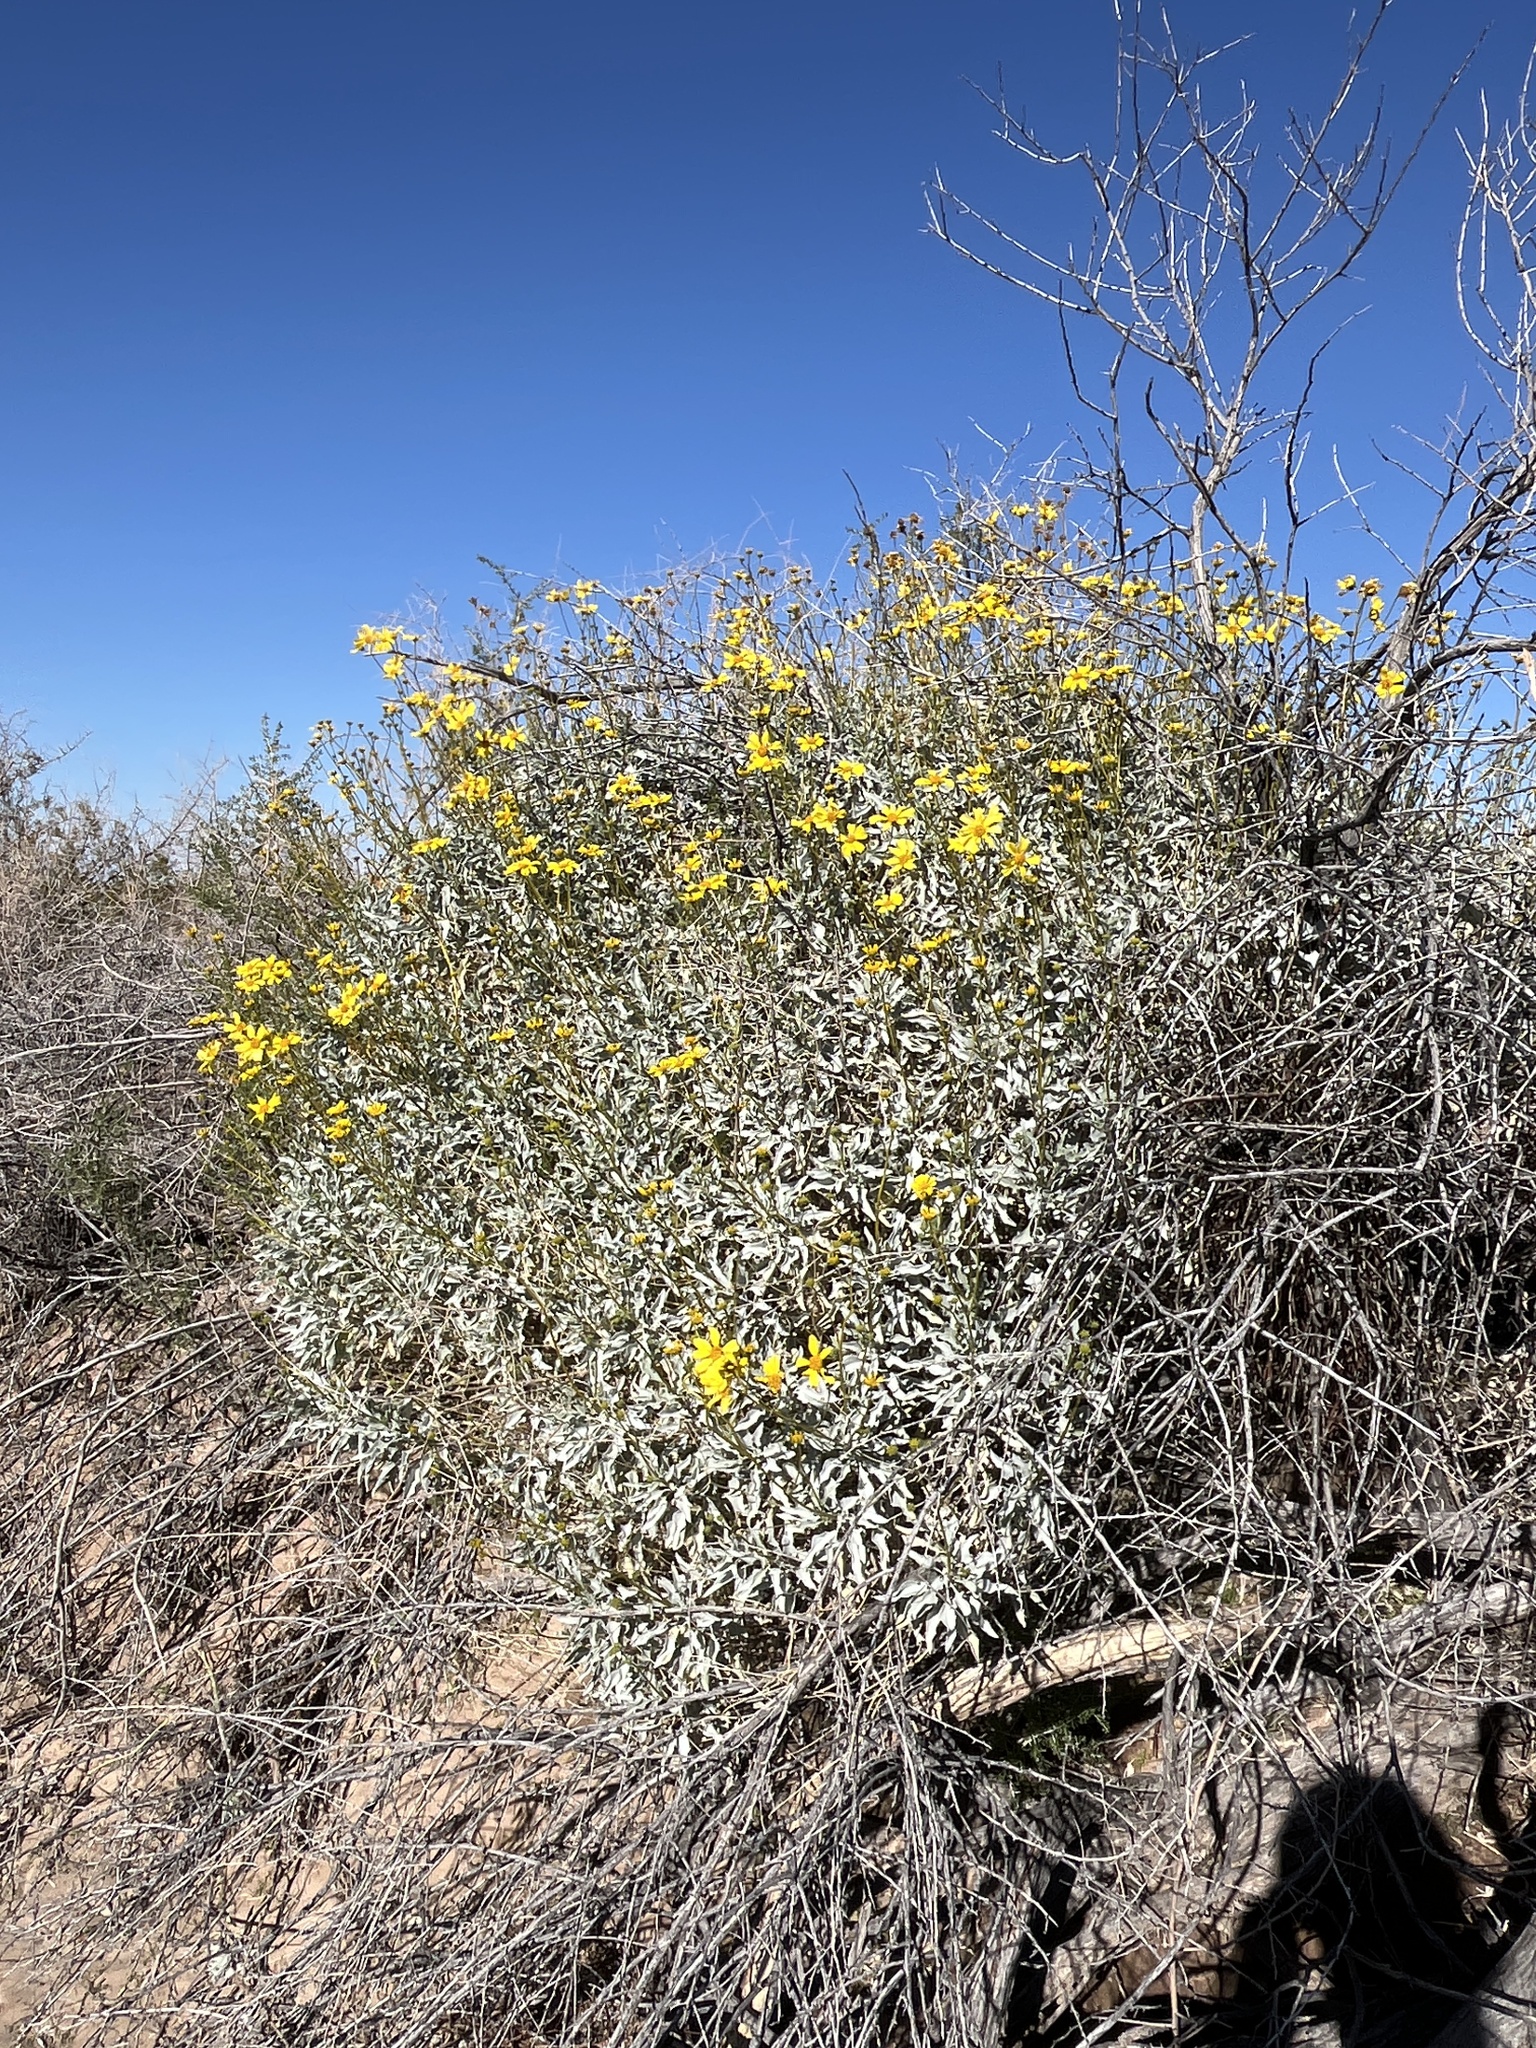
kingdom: Plantae
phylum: Tracheophyta
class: Magnoliopsida
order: Asterales
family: Asteraceae
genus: Encelia
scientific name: Encelia farinosa
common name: Brittlebush
